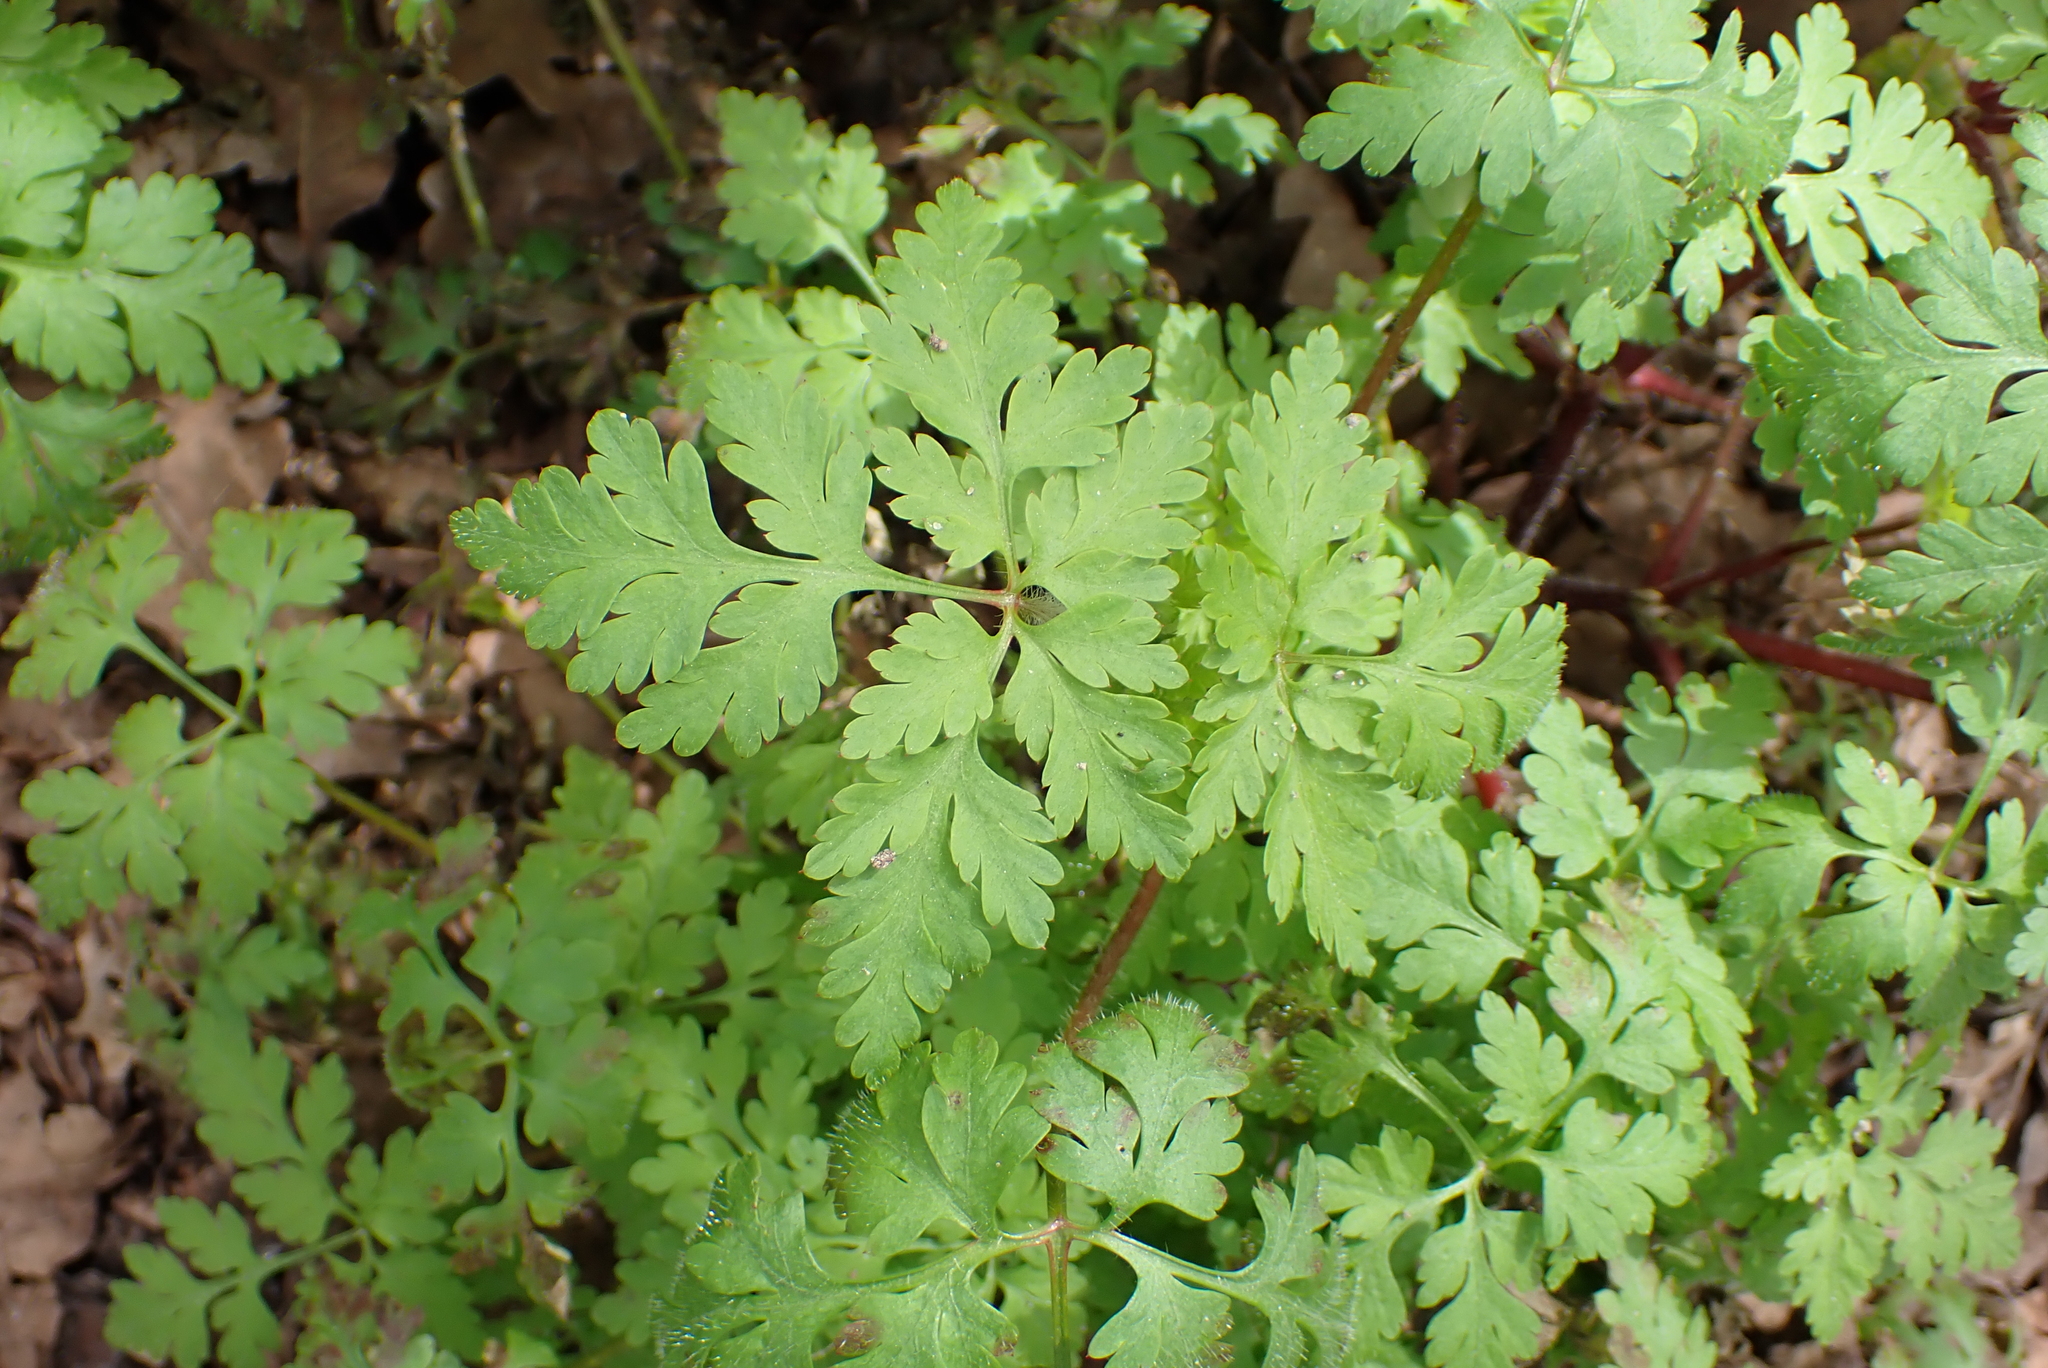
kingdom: Plantae
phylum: Tracheophyta
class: Magnoliopsida
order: Geraniales
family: Geraniaceae
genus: Geranium
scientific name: Geranium robertianum
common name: Herb-robert
